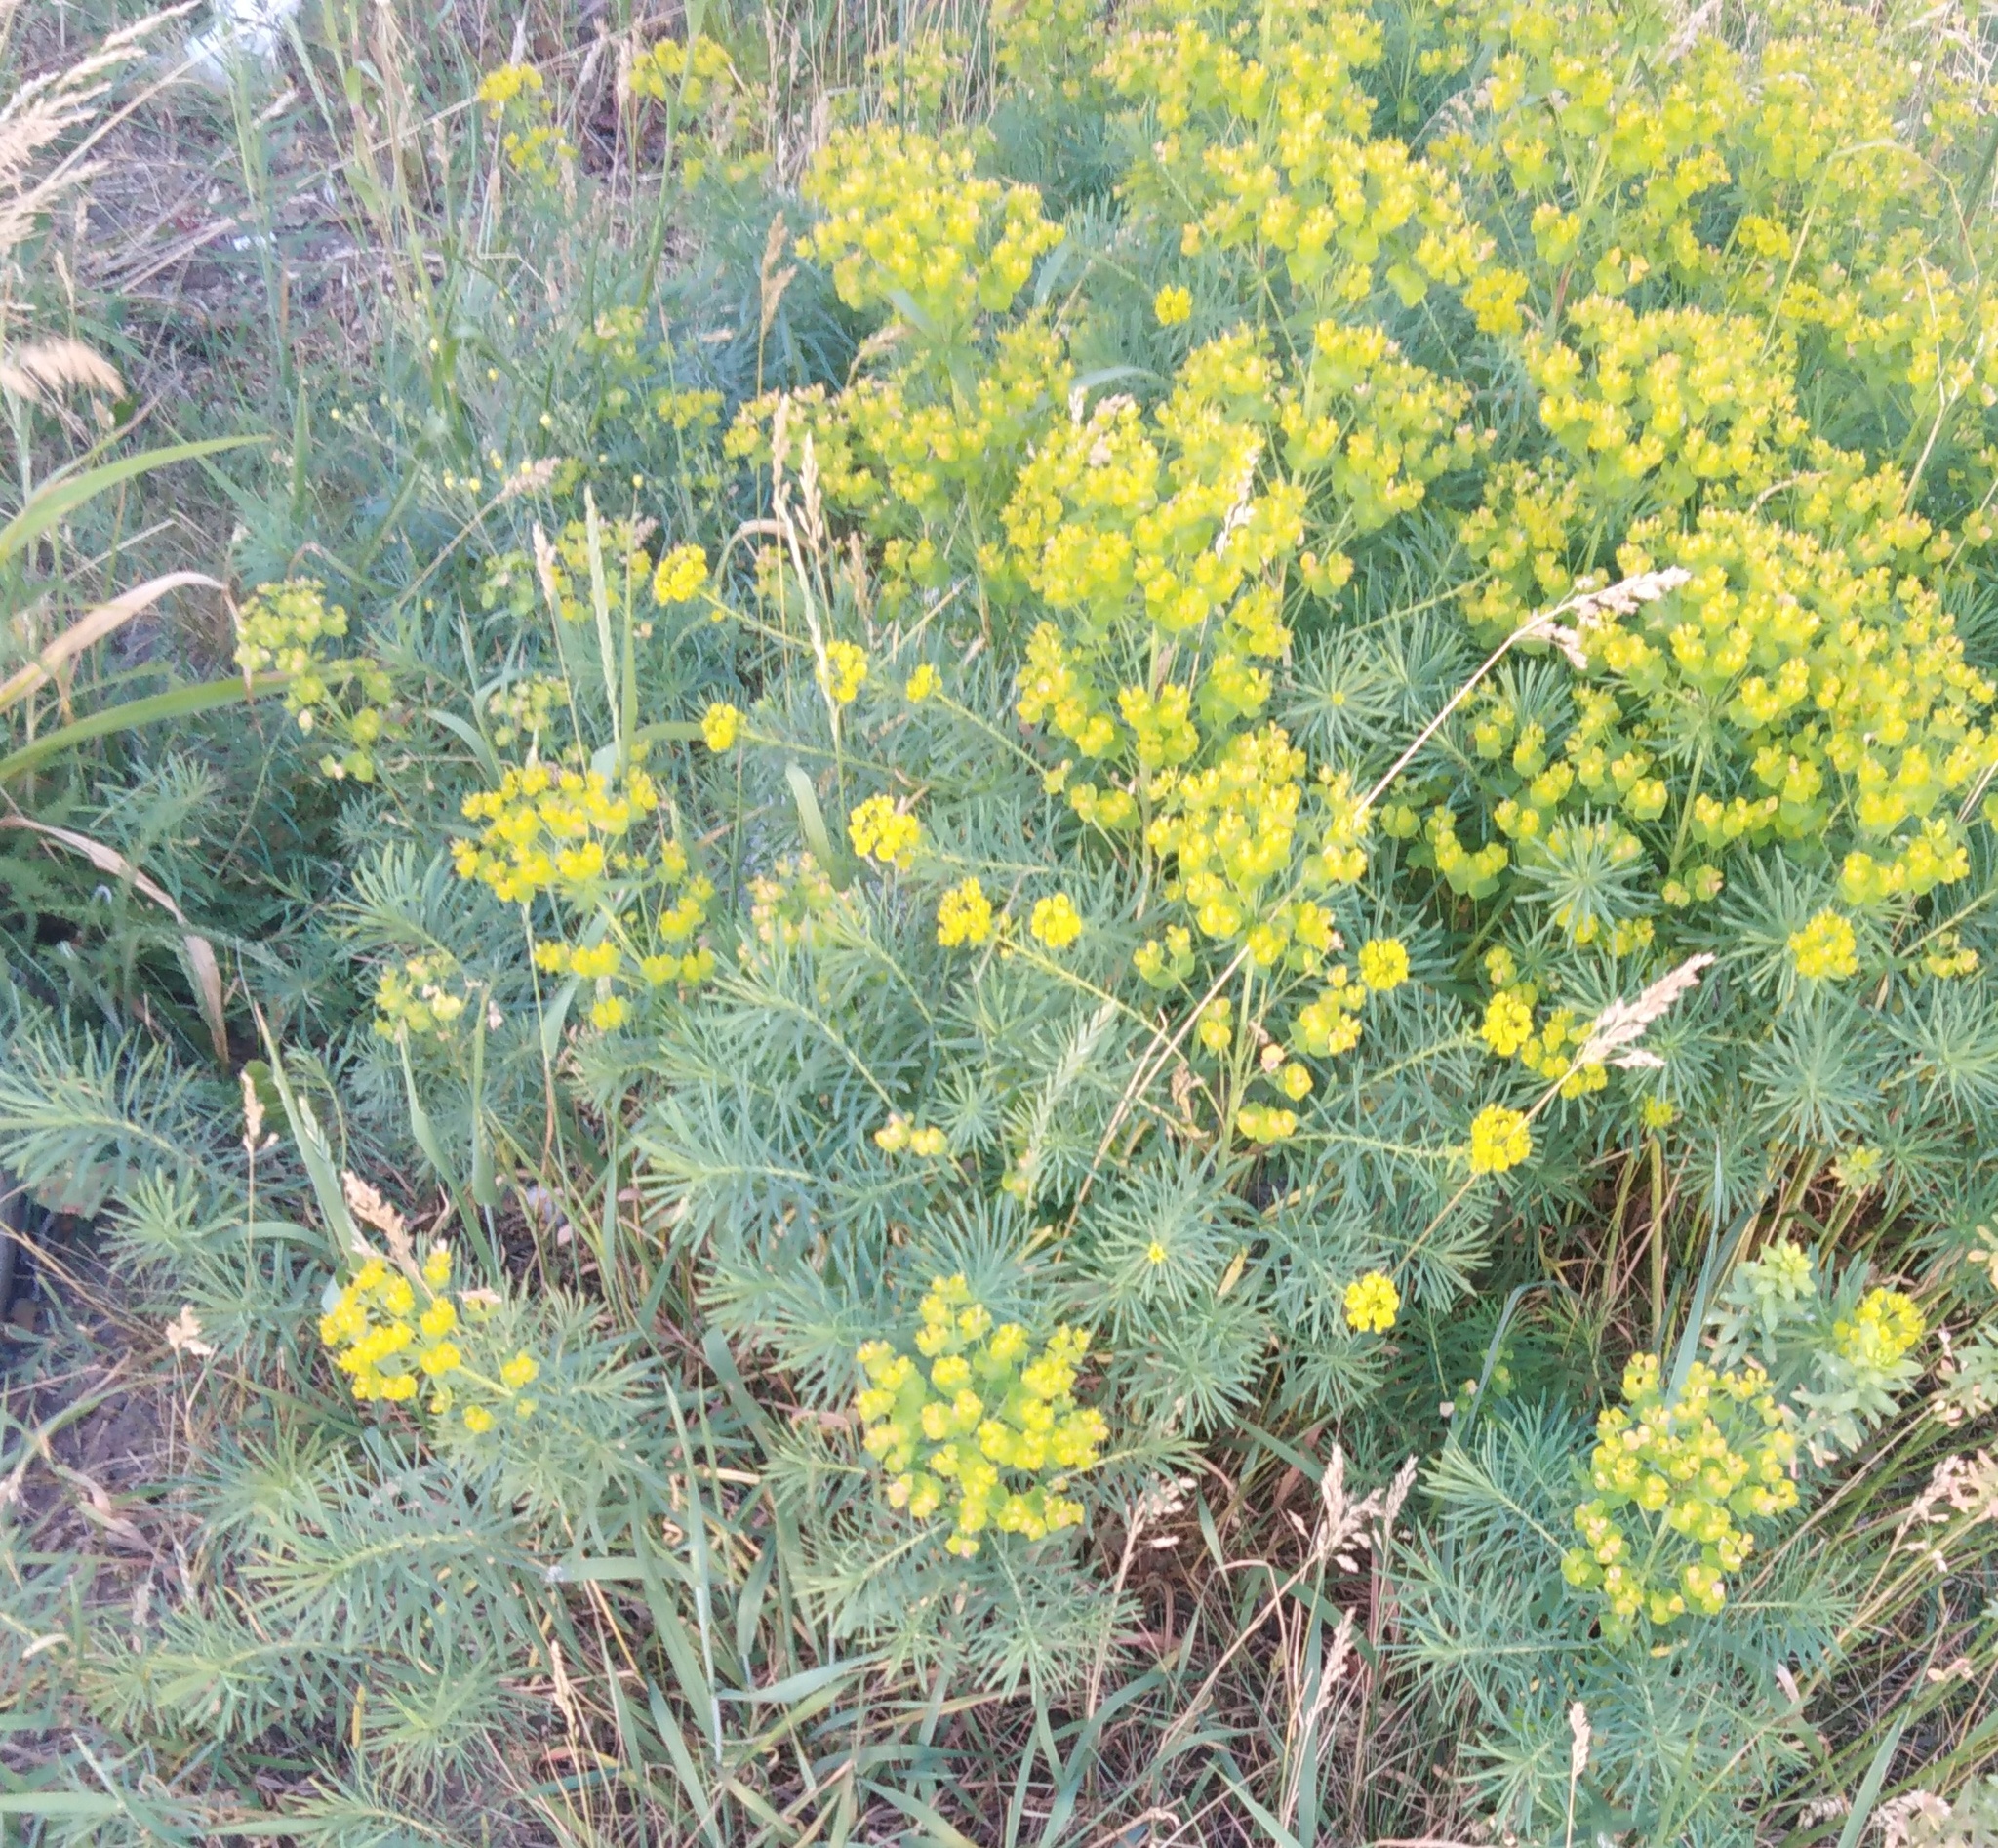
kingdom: Plantae
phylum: Tracheophyta
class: Magnoliopsida
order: Malpighiales
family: Euphorbiaceae
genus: Euphorbia
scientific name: Euphorbia cyparissias
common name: Cypress spurge
